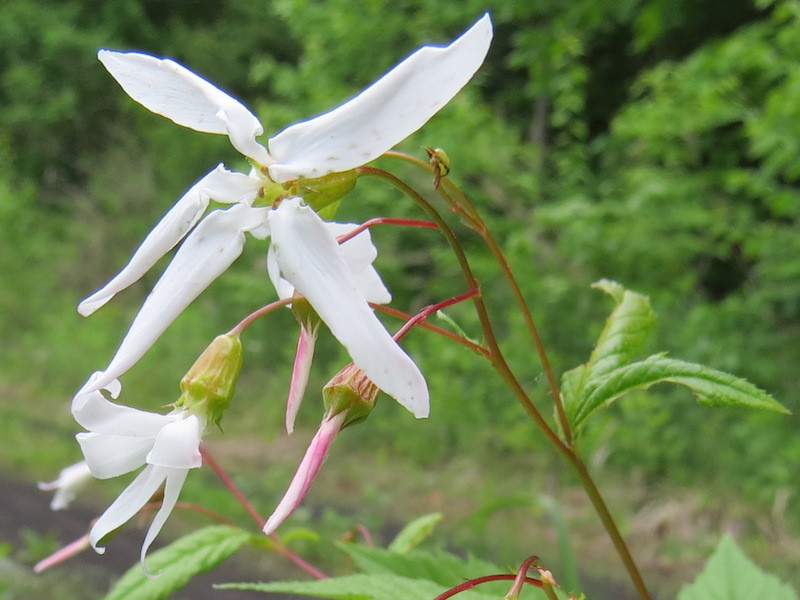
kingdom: Plantae
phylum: Tracheophyta
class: Magnoliopsida
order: Rosales
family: Rosaceae
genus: Gillenia
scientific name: Gillenia trifoliata
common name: Bowman's-root
